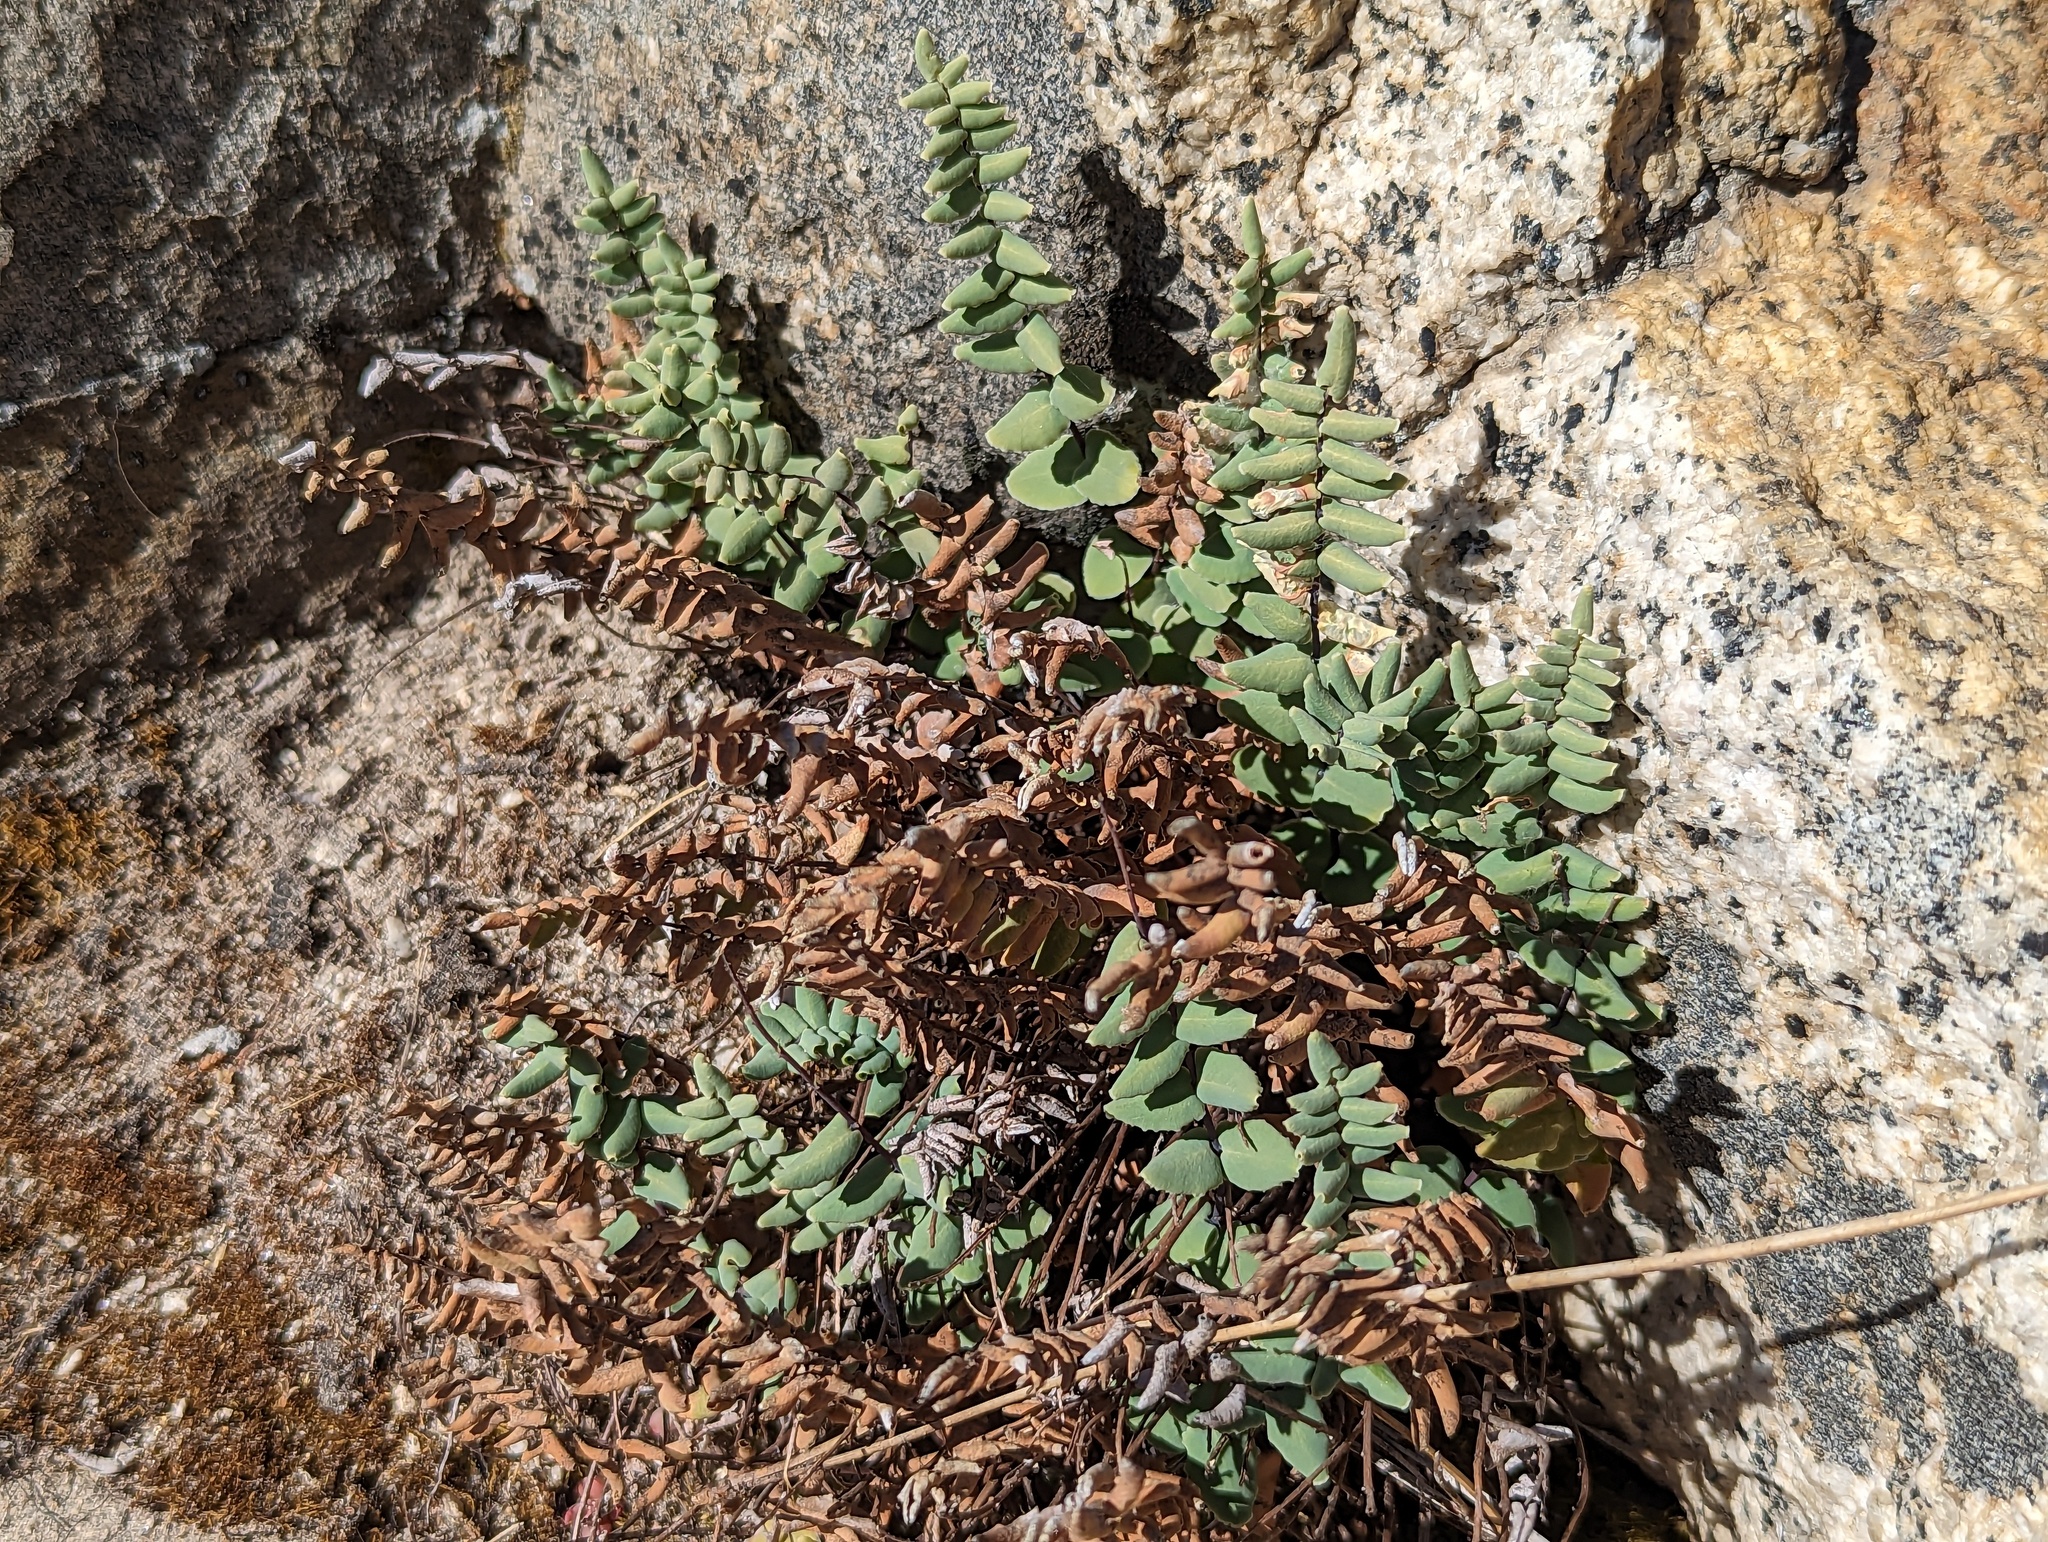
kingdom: Plantae
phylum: Tracheophyta
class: Polypodiopsida
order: Polypodiales
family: Pteridaceae
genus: Pellaea
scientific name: Pellaea bridgesii
